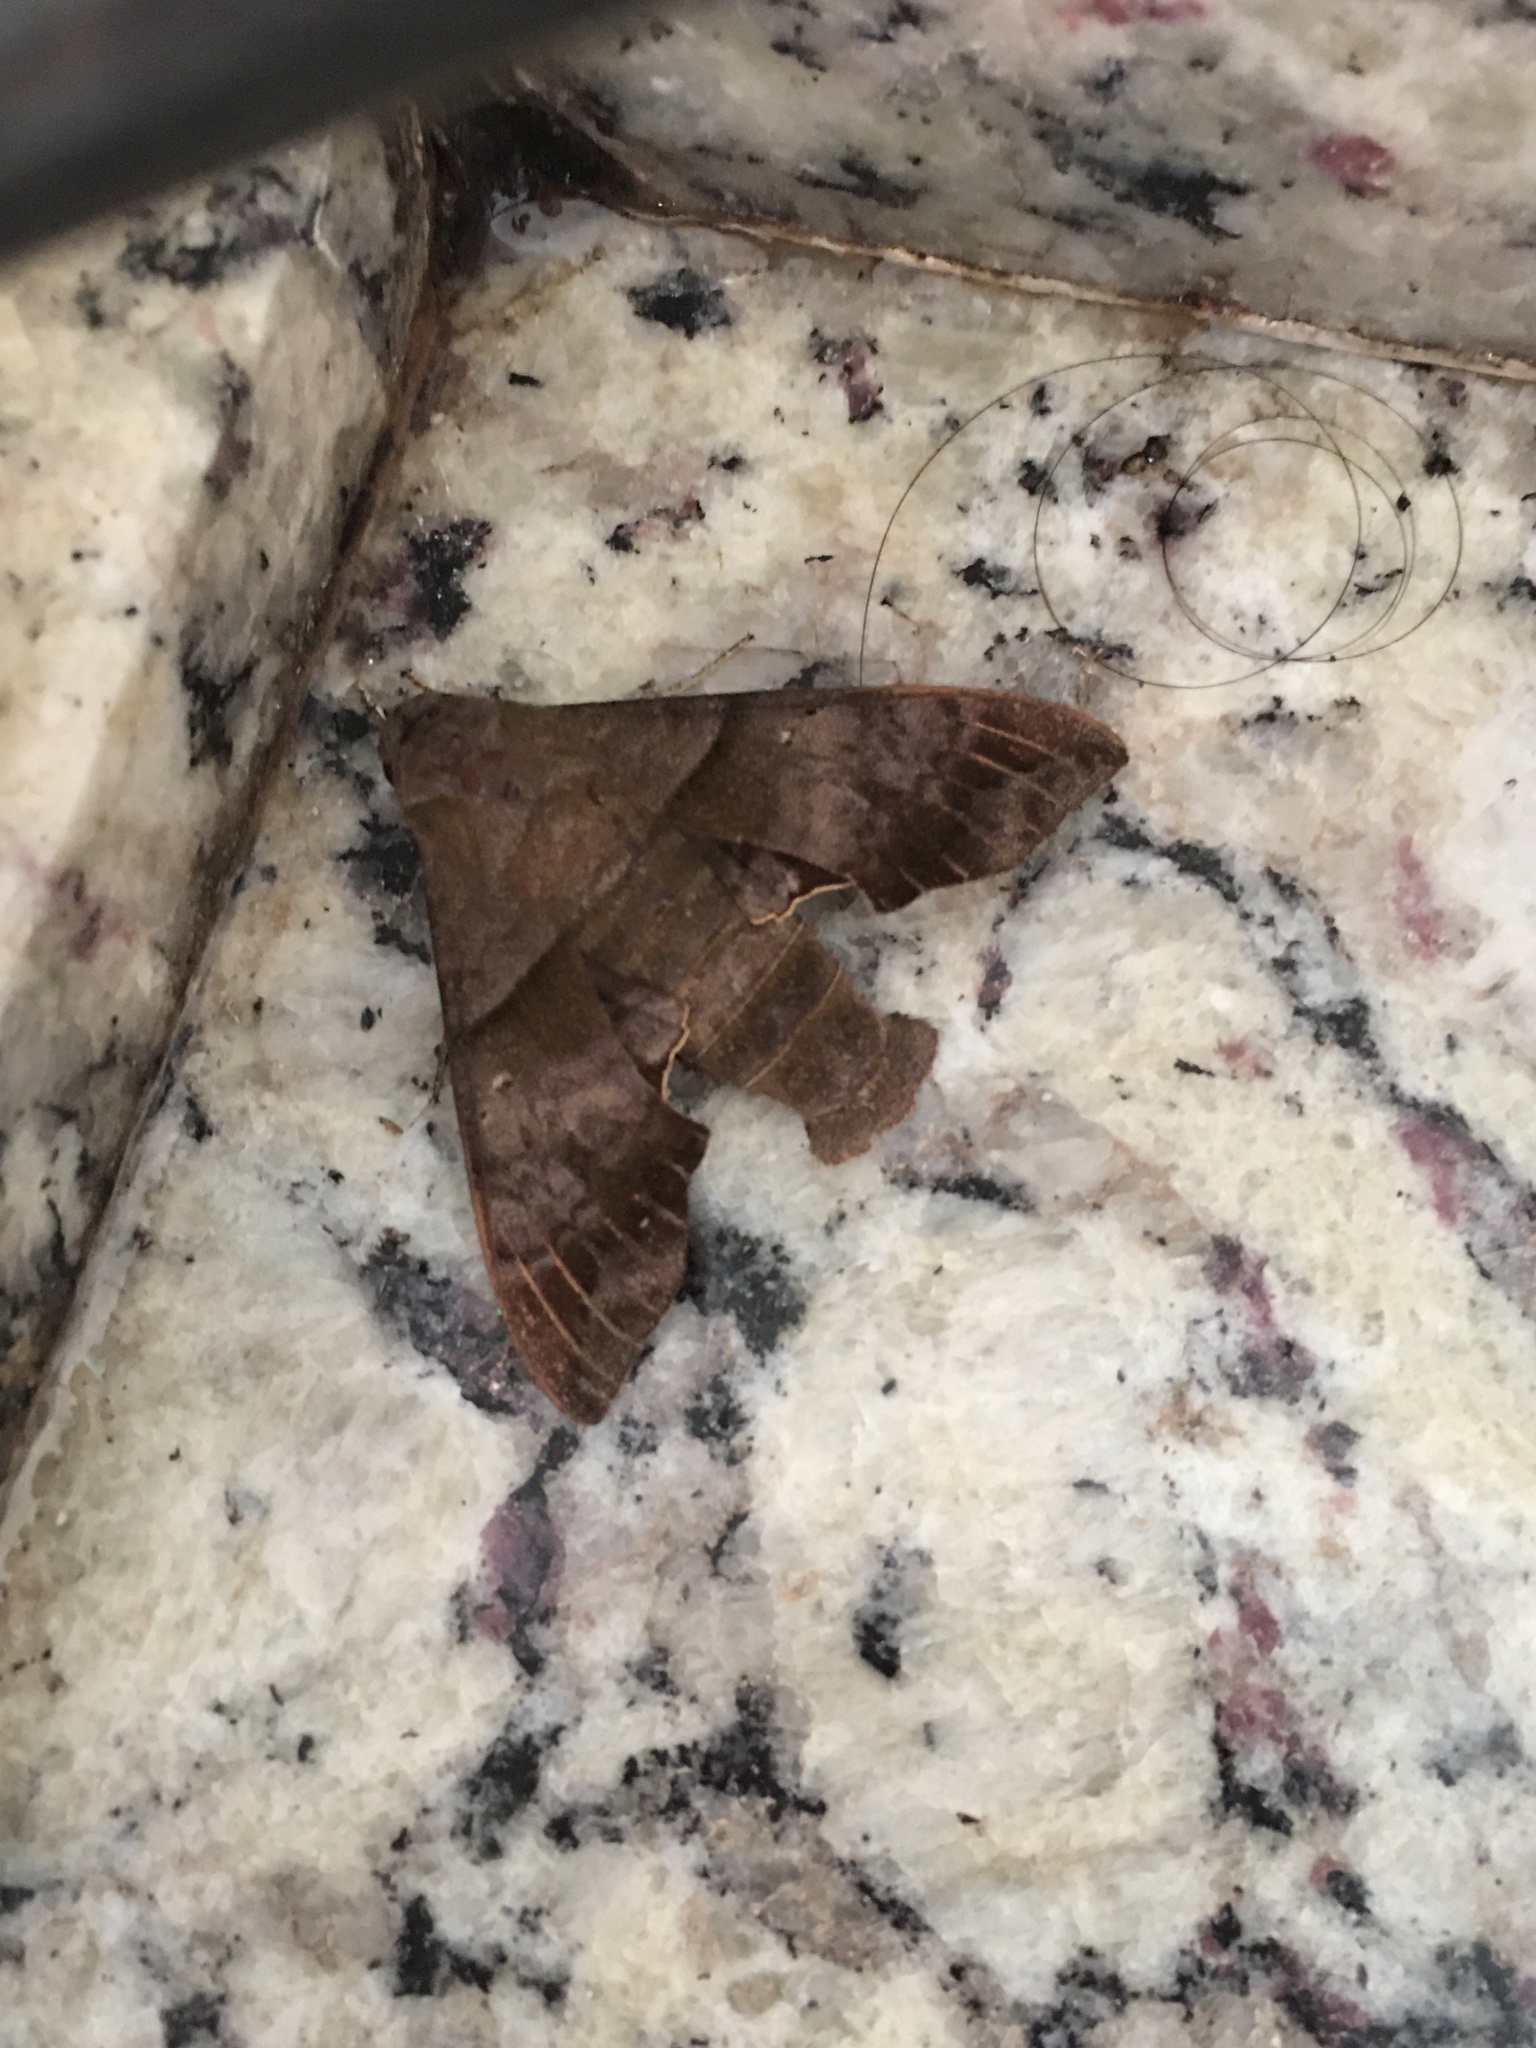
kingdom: Animalia
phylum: Arthropoda
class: Insecta
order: Lepidoptera
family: Sphingidae
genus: Perigonia
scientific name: Perigonia lusca
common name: Half-blind sphinx
